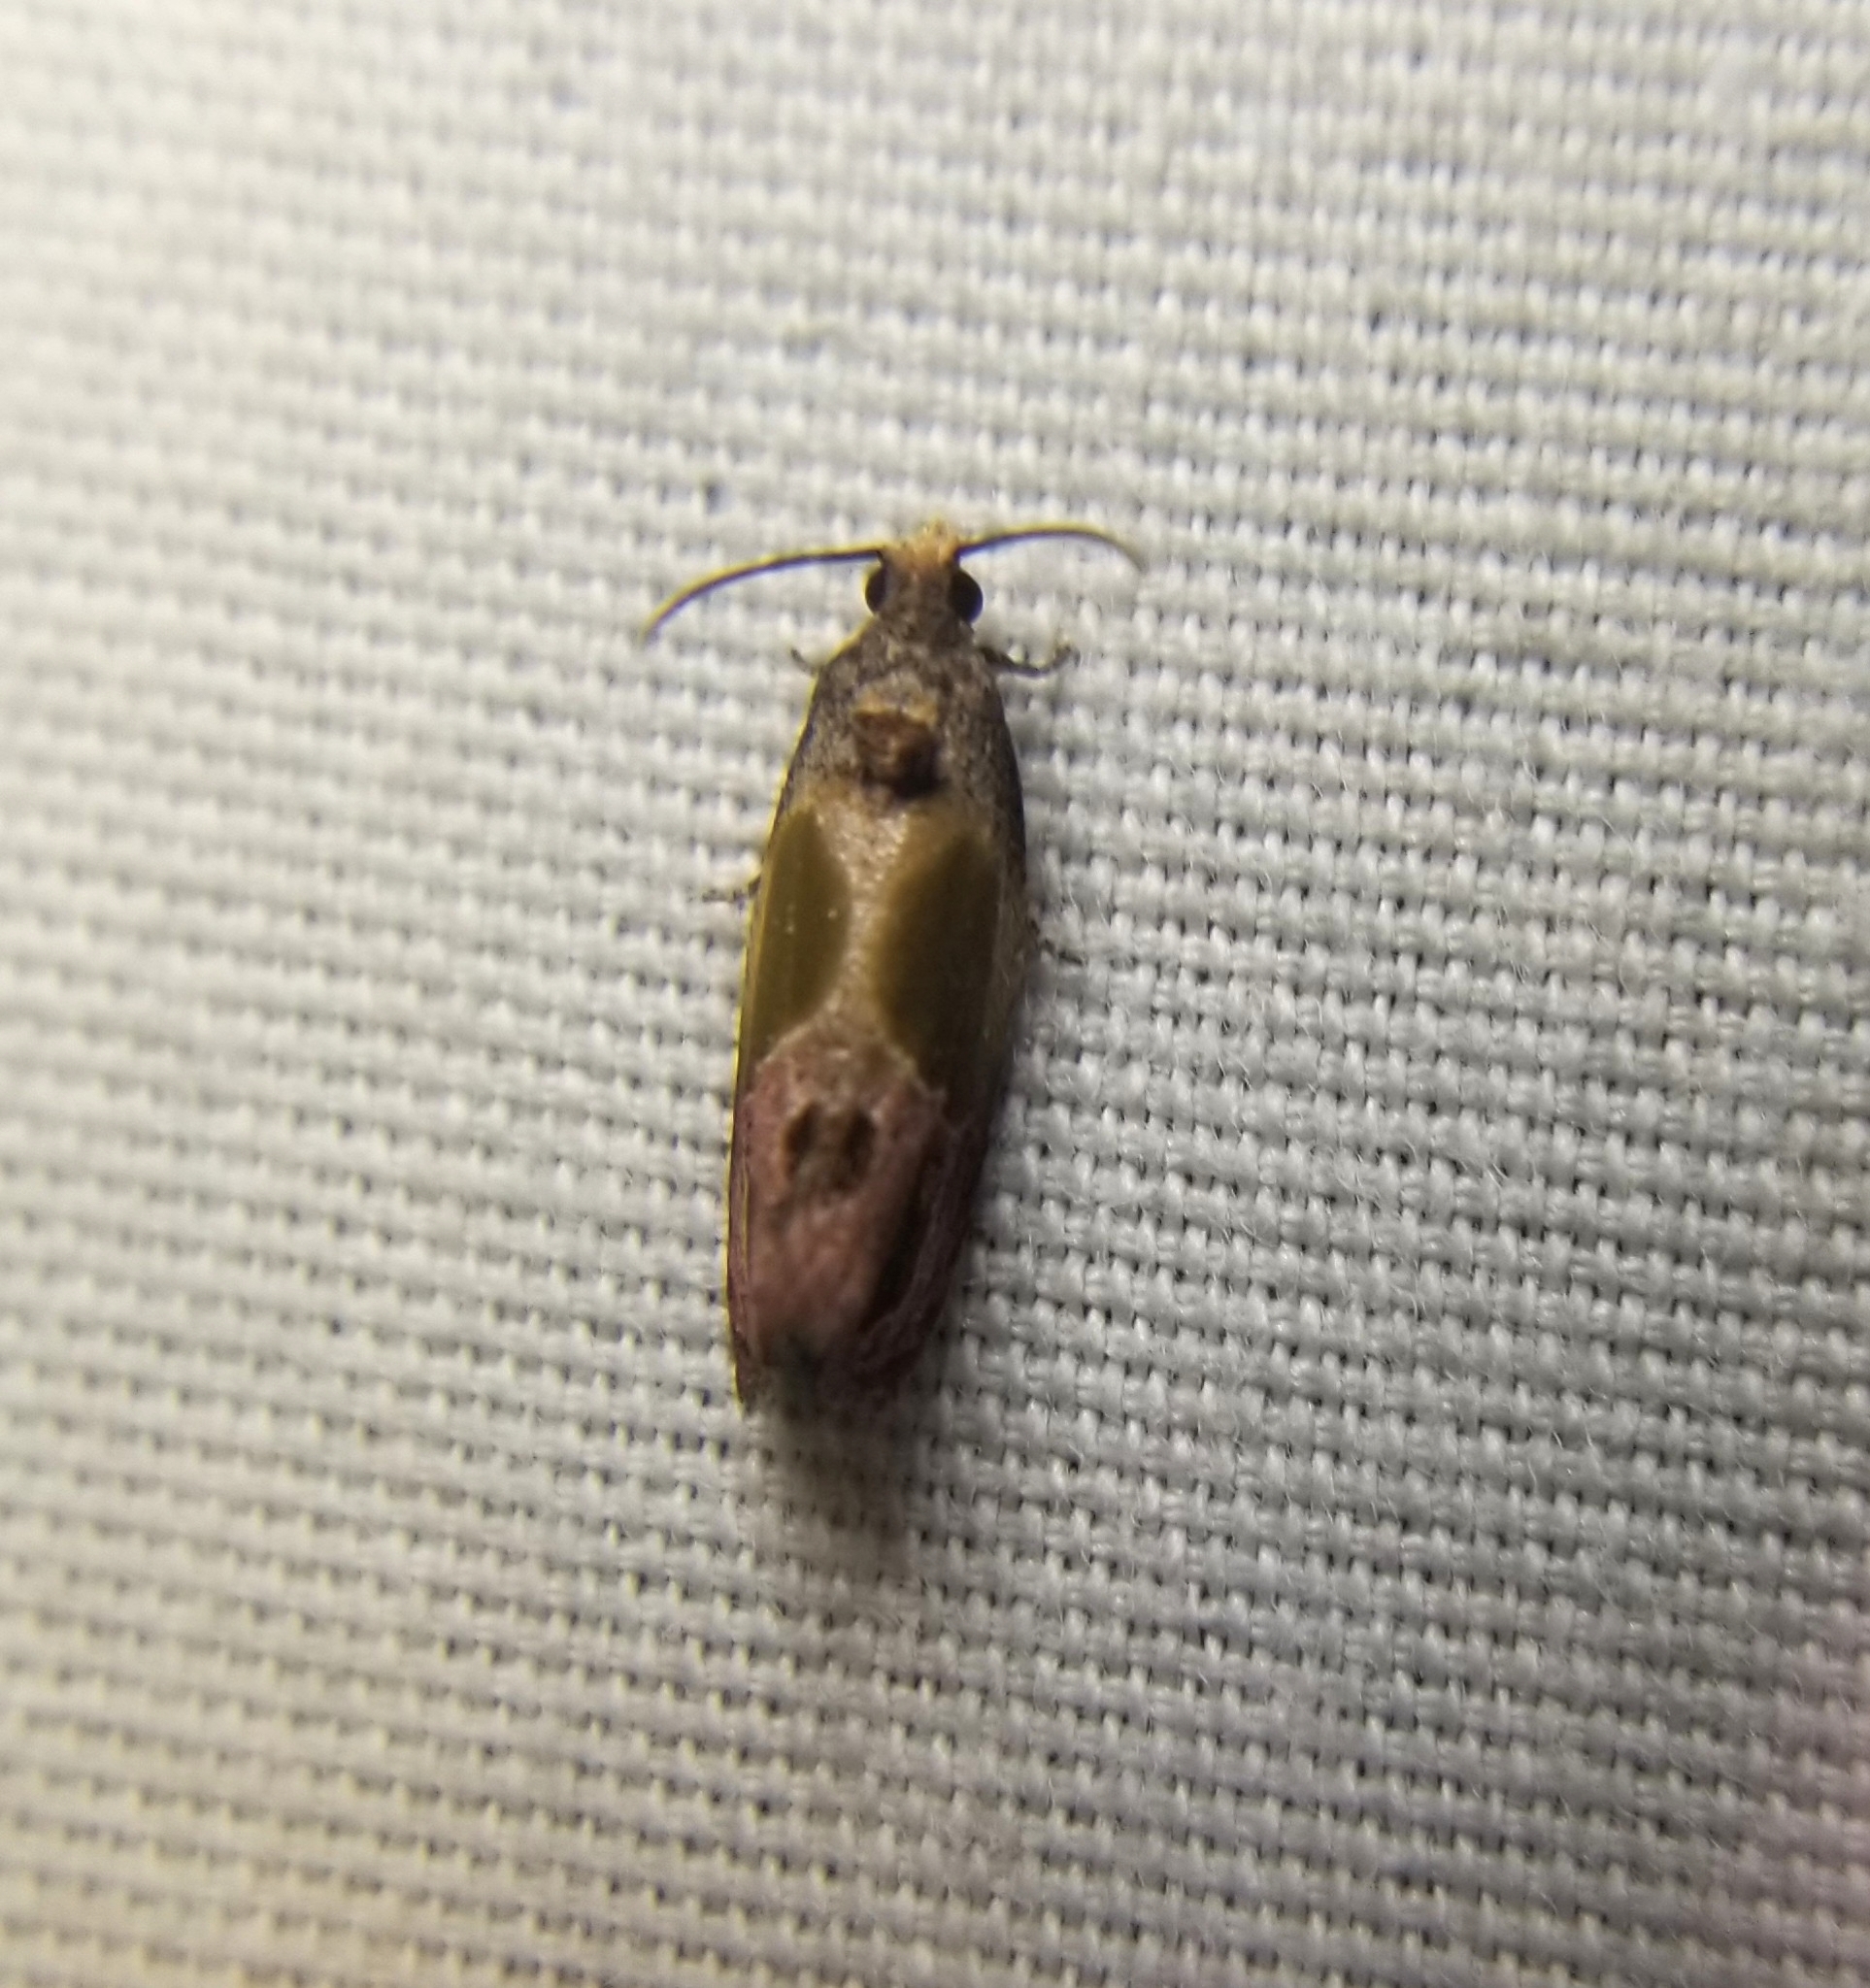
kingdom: Animalia
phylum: Arthropoda
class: Insecta
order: Lepidoptera
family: Tortricidae
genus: Eumarozia
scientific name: Eumarozia malachitana
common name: Sculptured moth
